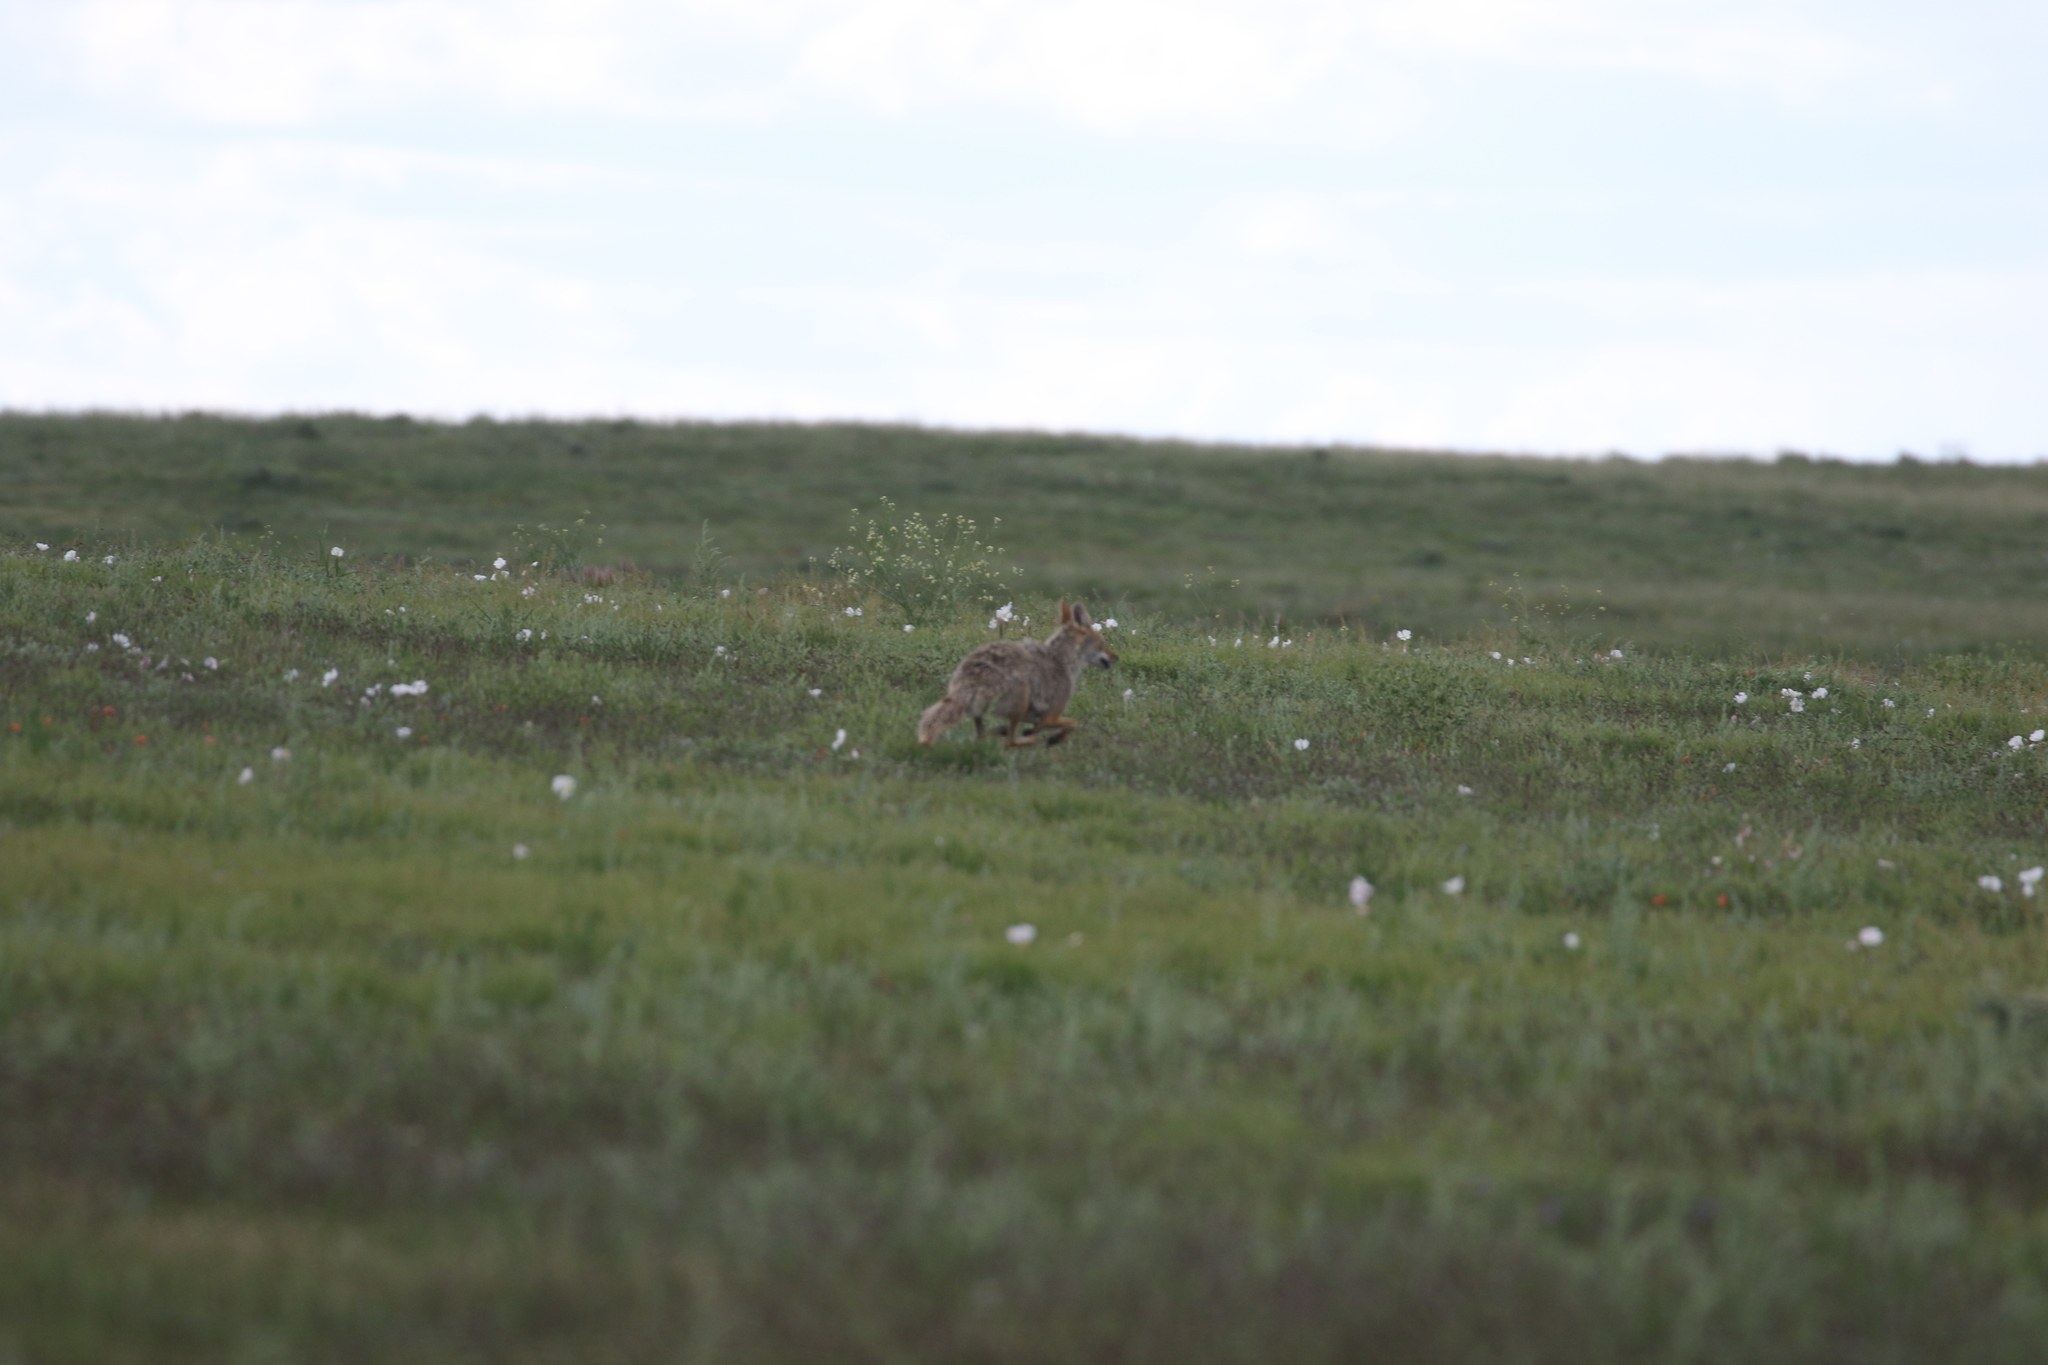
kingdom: Animalia
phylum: Chordata
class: Mammalia
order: Carnivora
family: Canidae
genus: Canis
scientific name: Canis latrans
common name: Coyote
